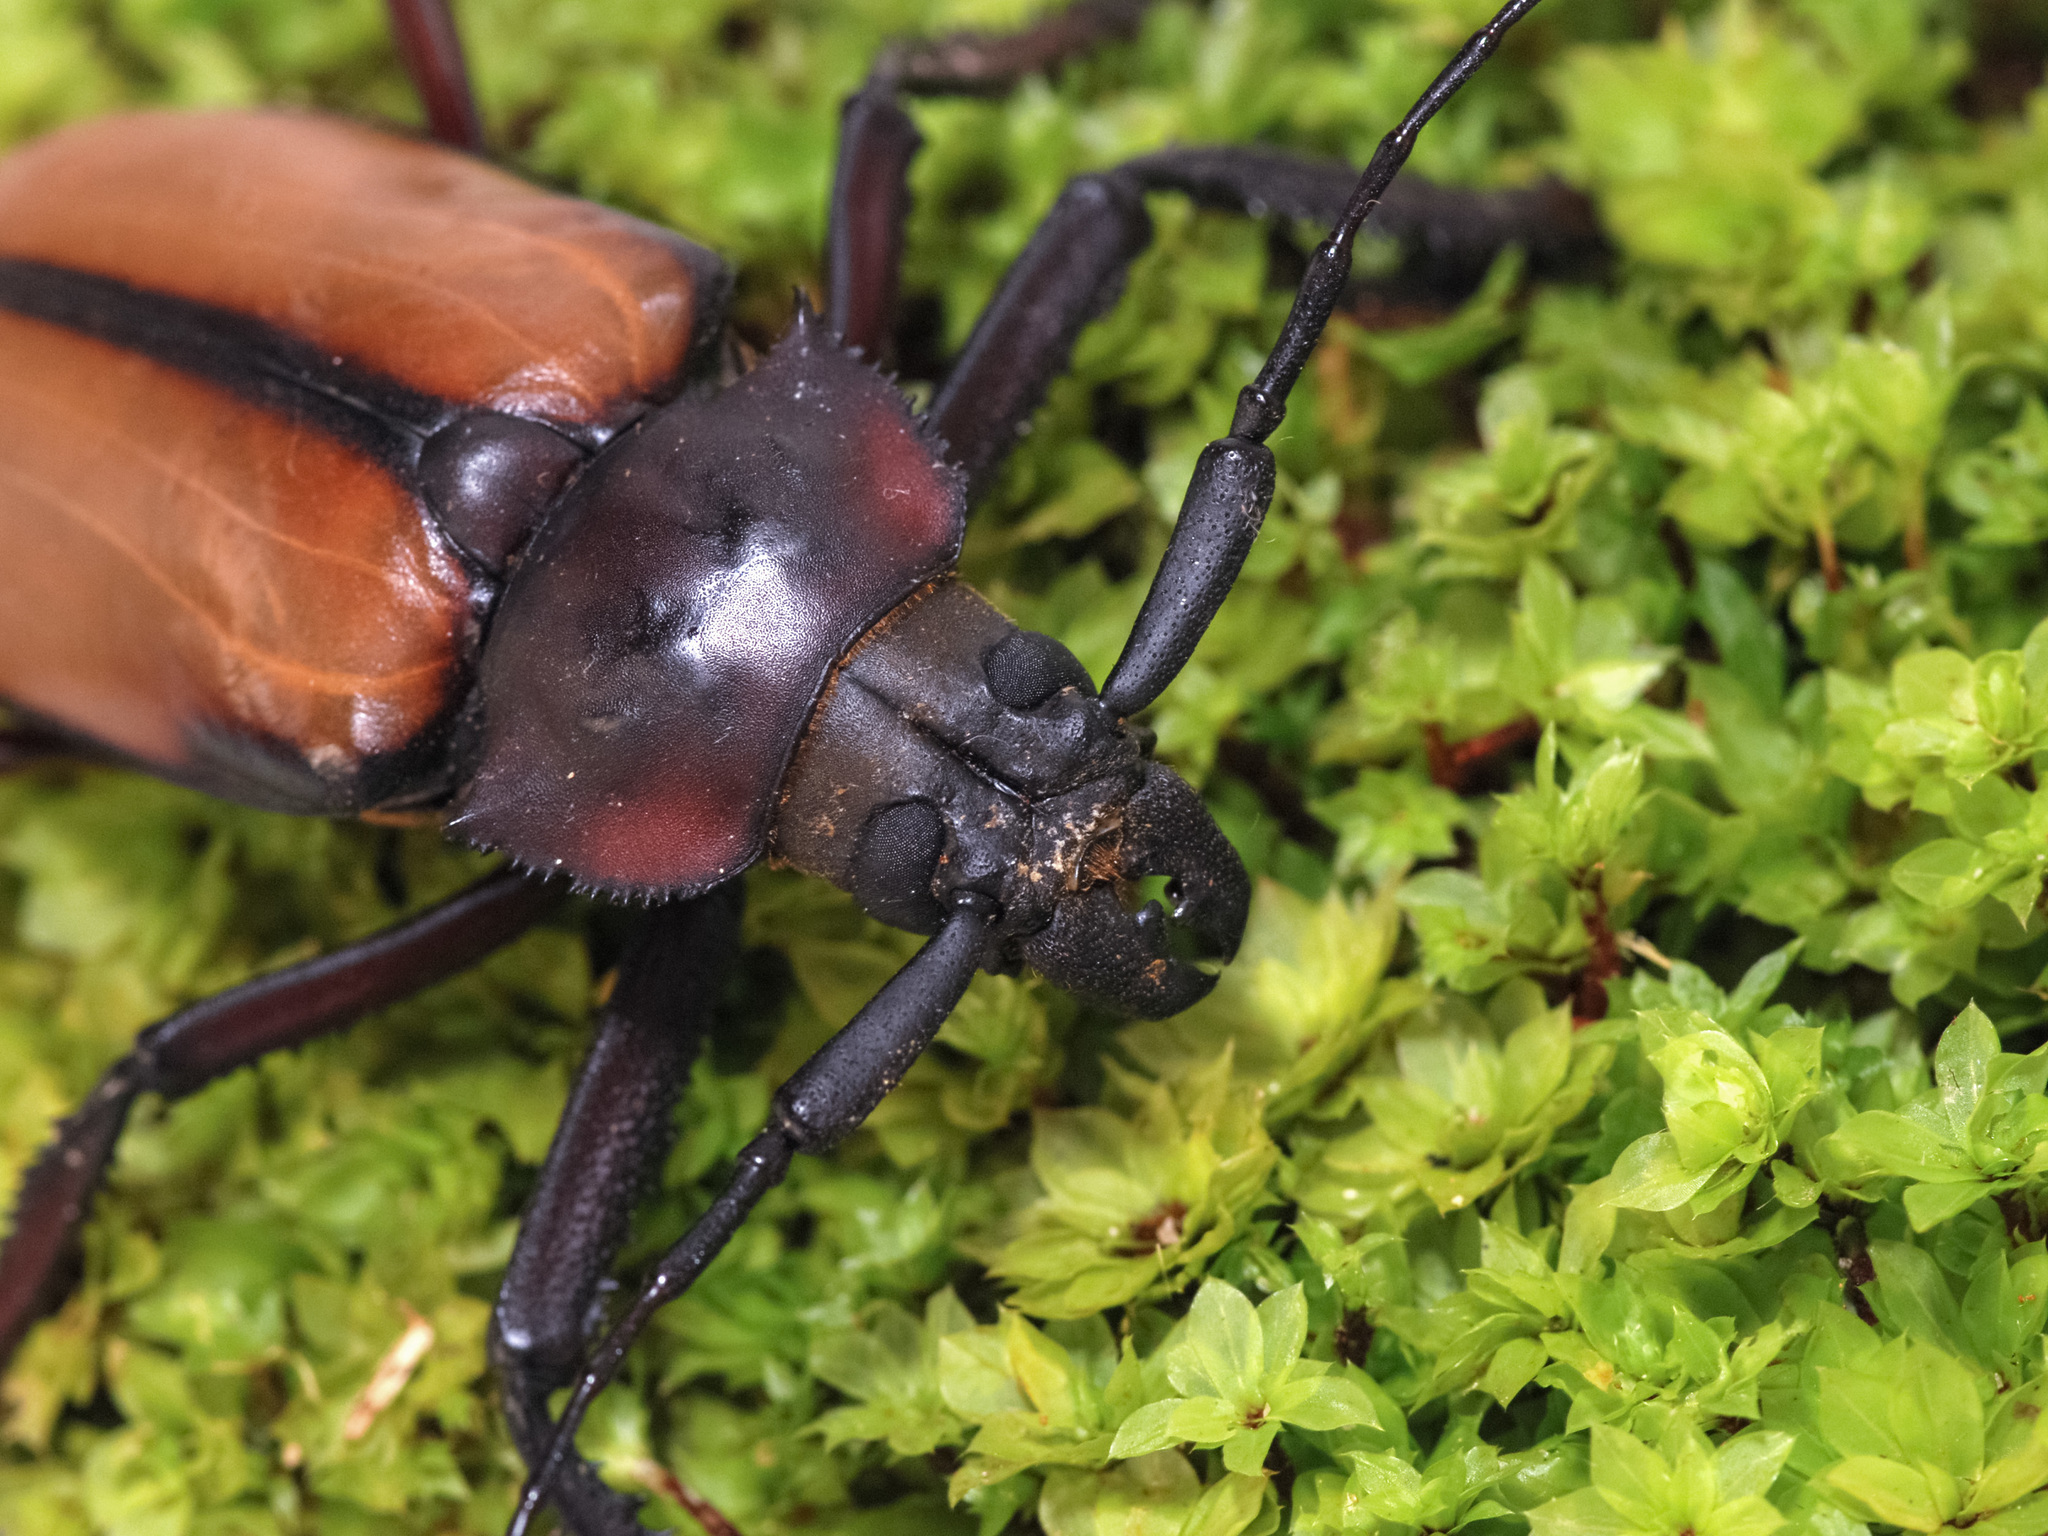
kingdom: Animalia
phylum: Arthropoda
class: Insecta
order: Coleoptera
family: Cerambycidae
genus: Rhaphipodus
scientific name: Rhaphipodus suturalis
